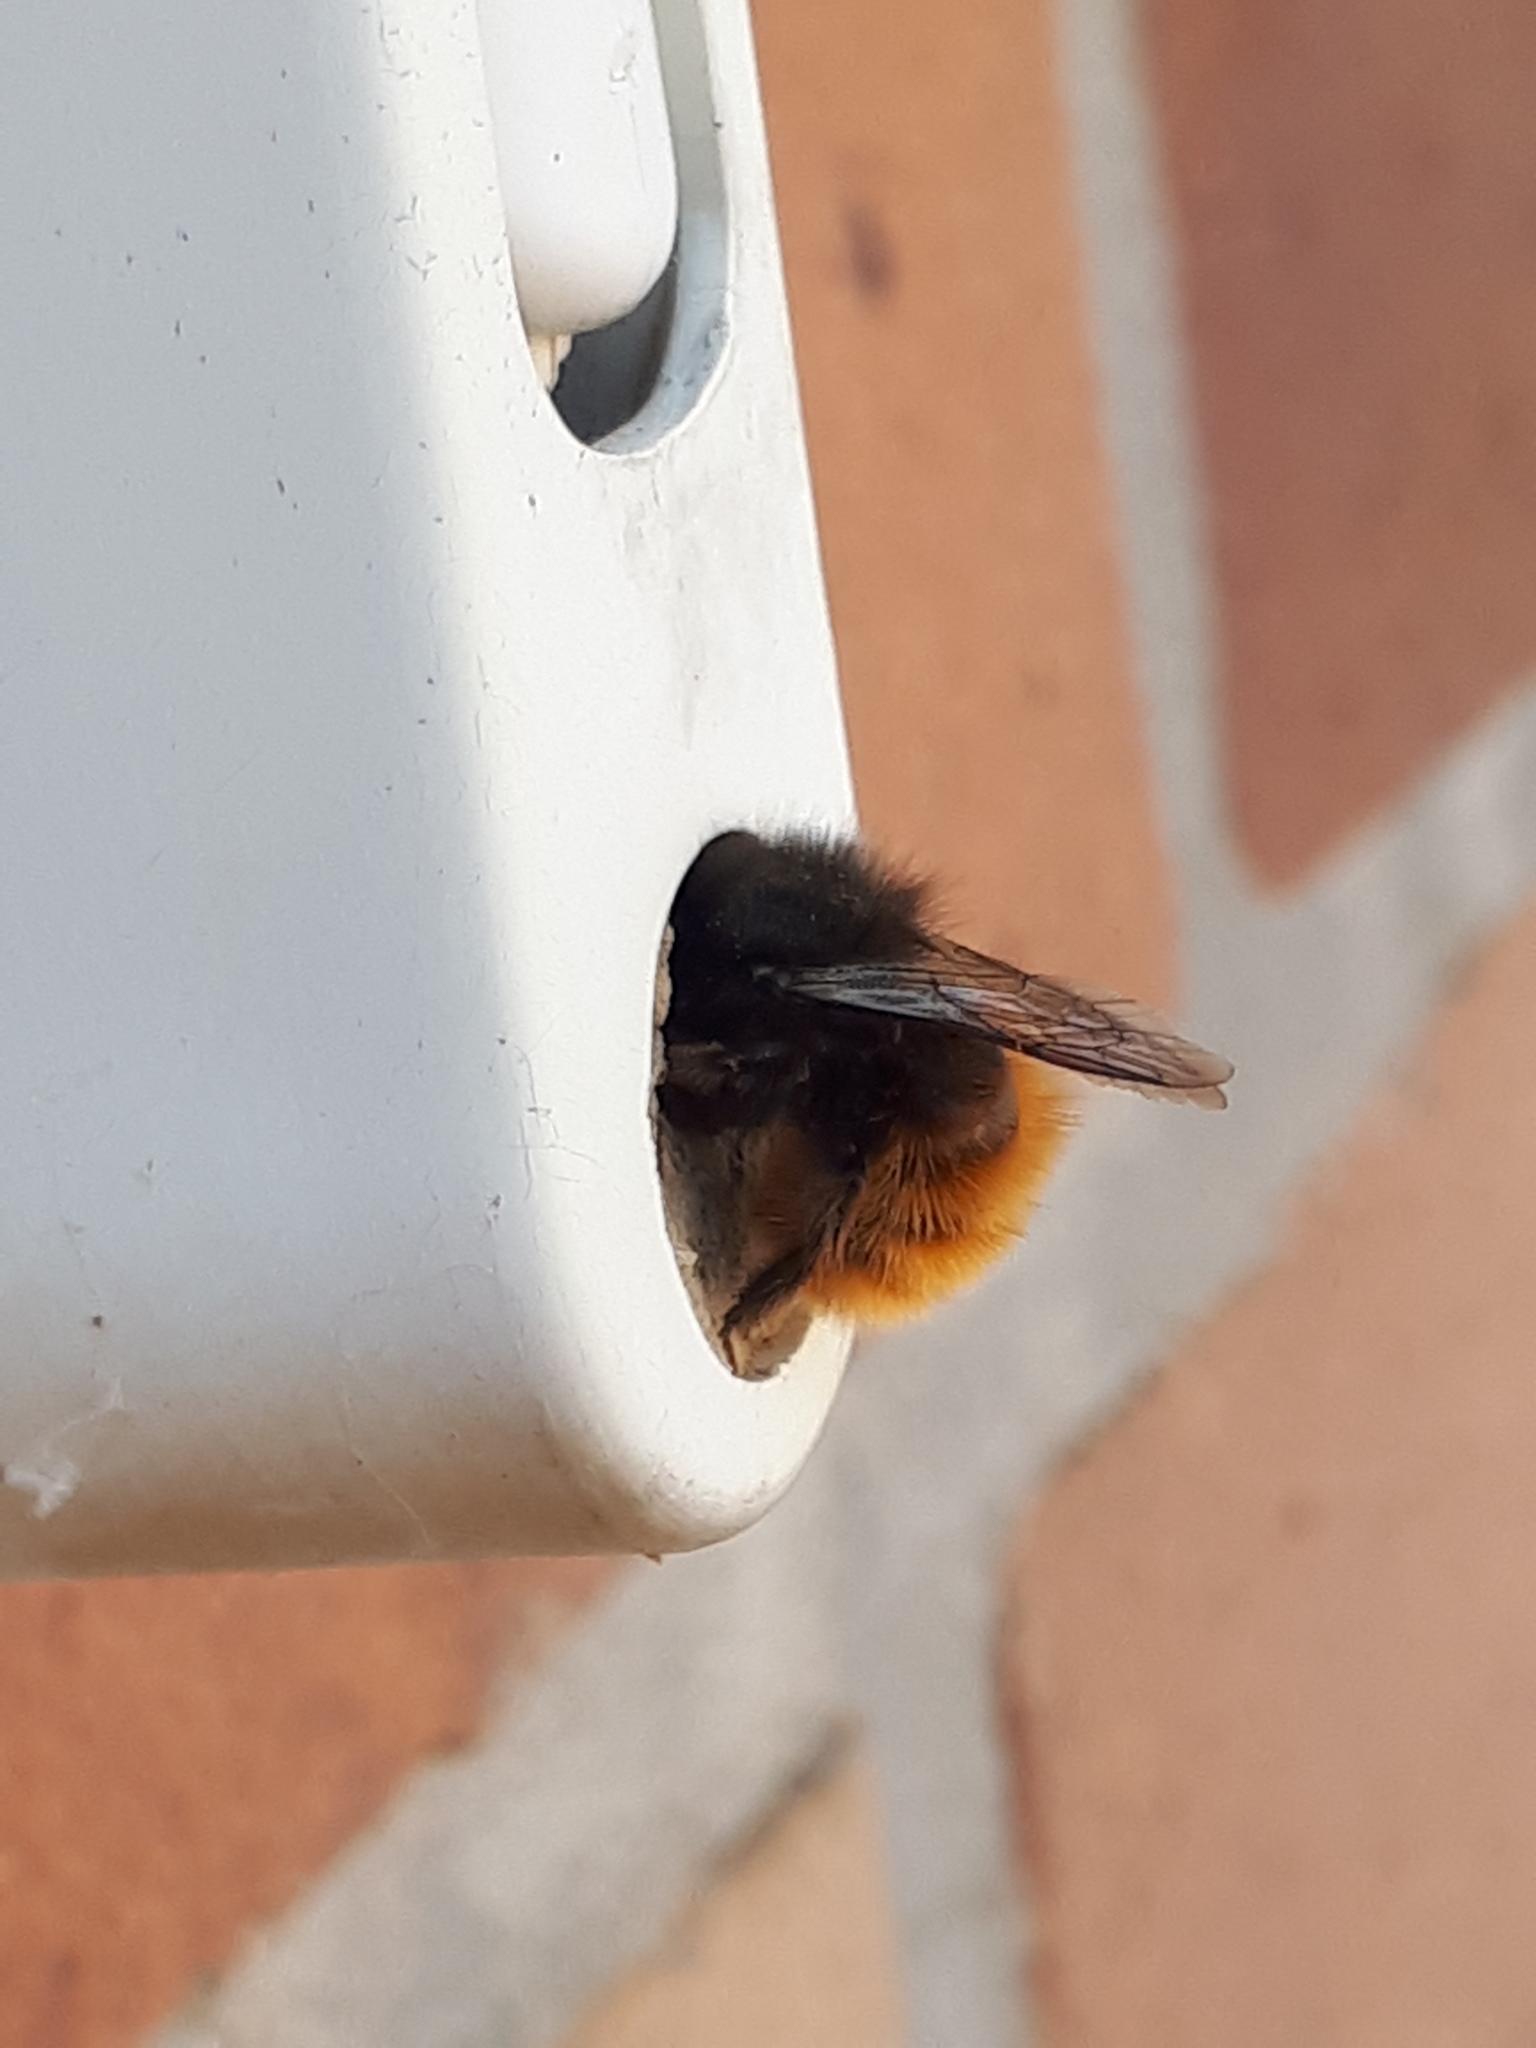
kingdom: Animalia
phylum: Arthropoda
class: Insecta
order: Hymenoptera
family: Megachilidae
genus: Osmia
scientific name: Osmia cornuta
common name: Mason bee
